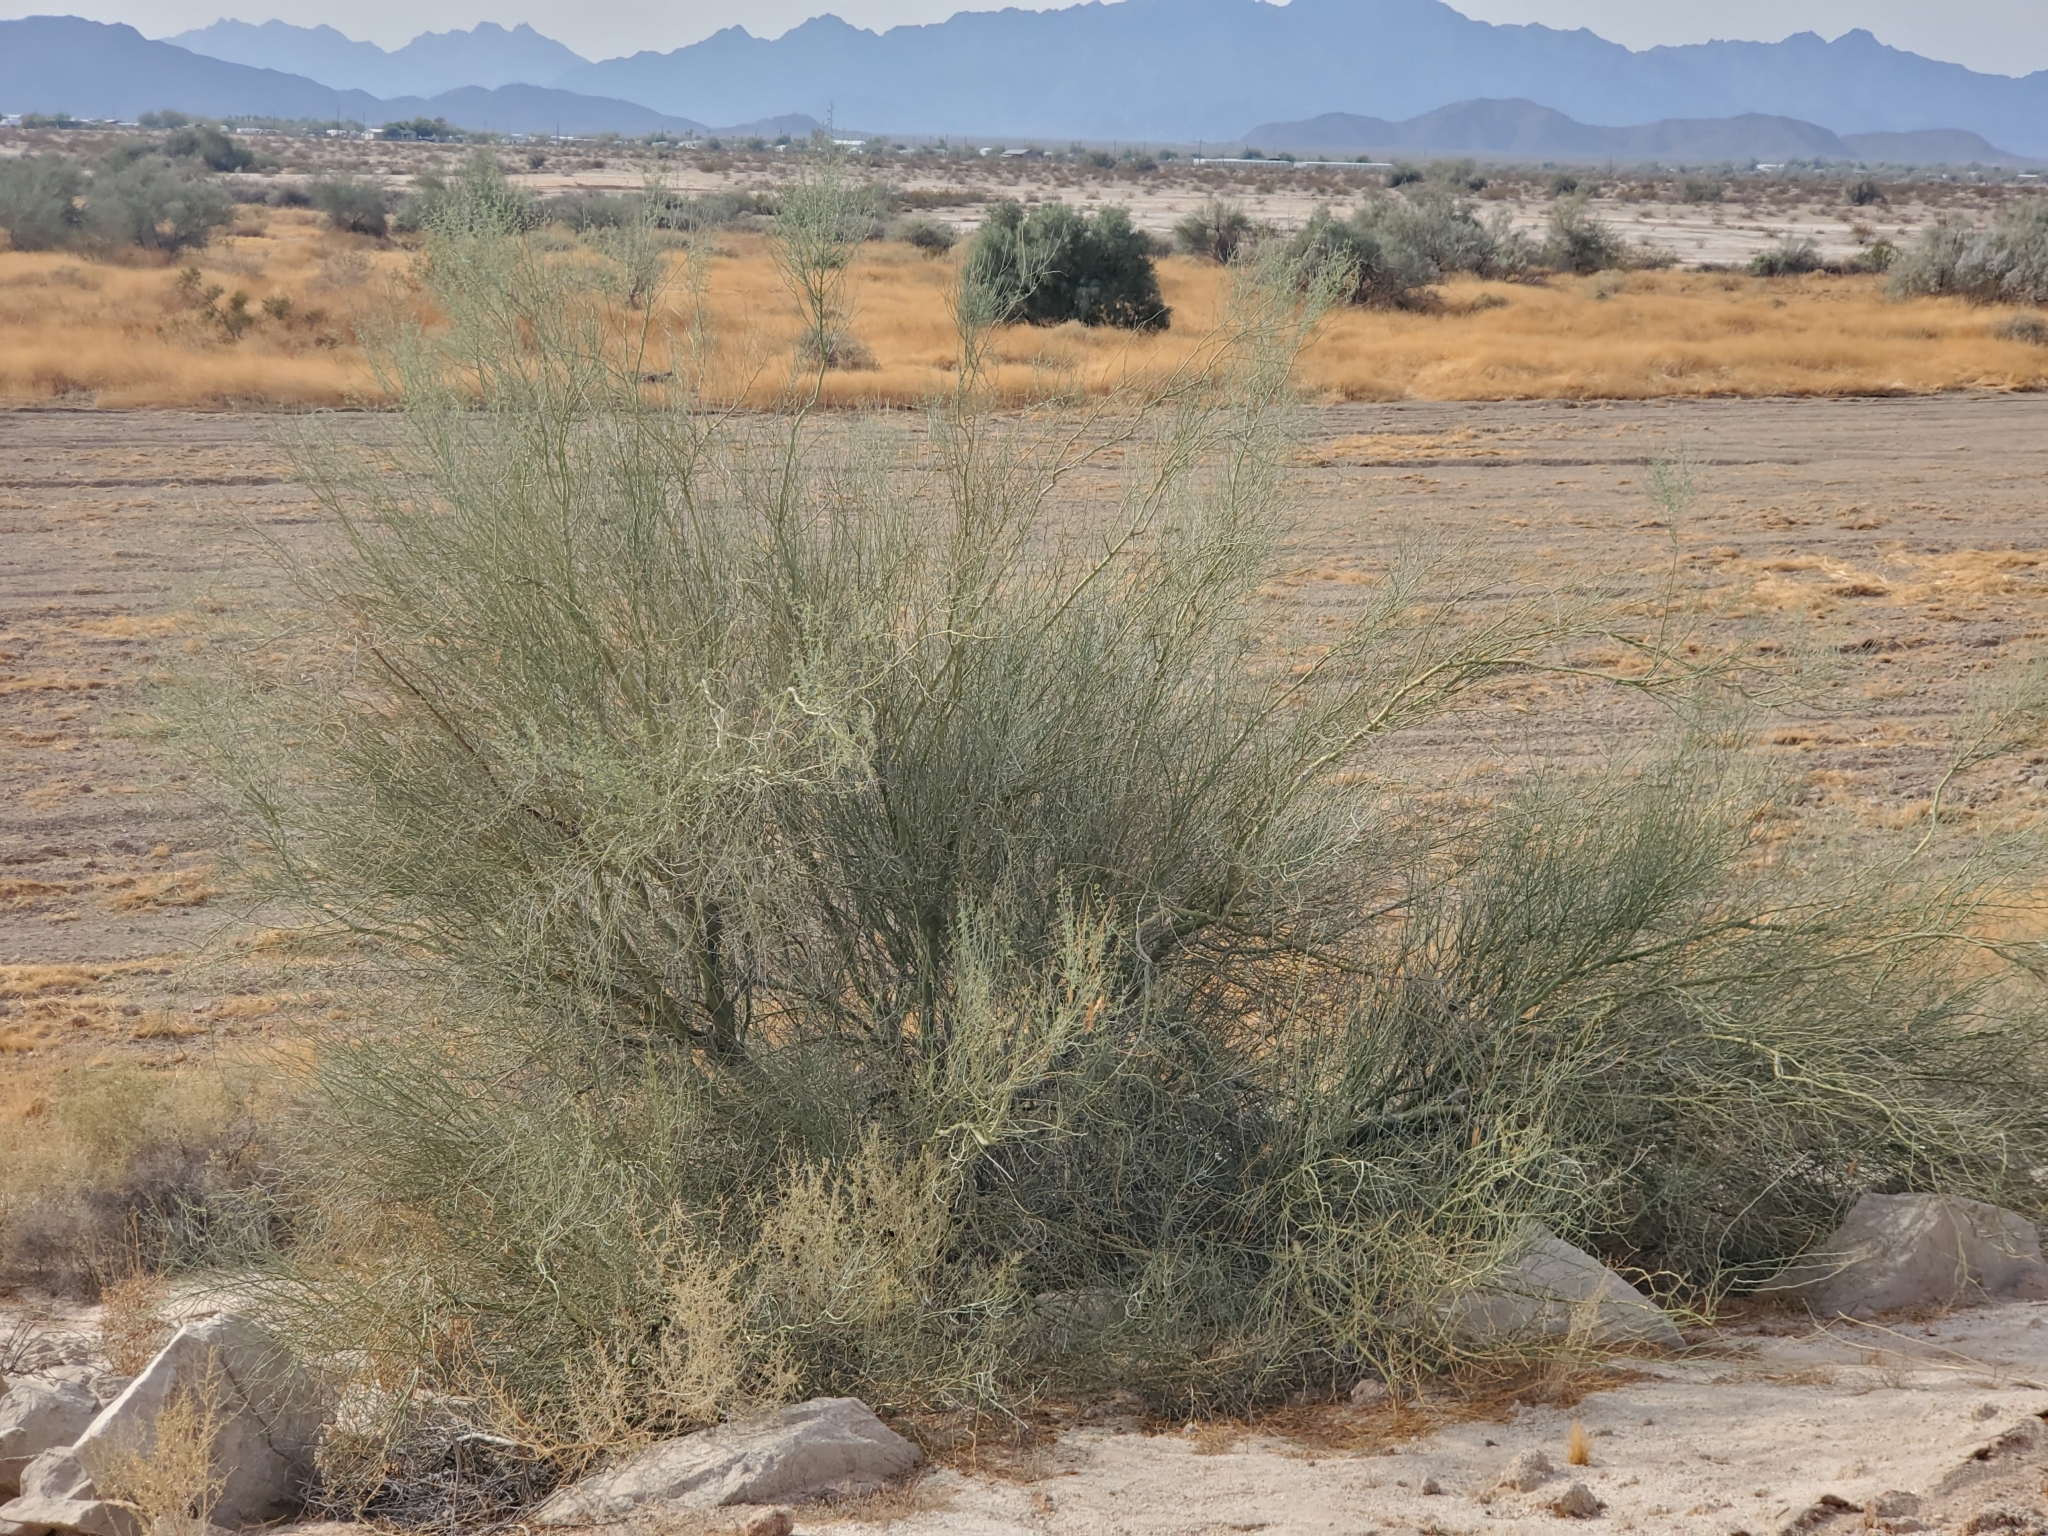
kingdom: Plantae
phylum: Tracheophyta
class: Magnoliopsida
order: Fabales
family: Fabaceae
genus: Parkinsonia
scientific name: Parkinsonia florida
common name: Blue paloverde
